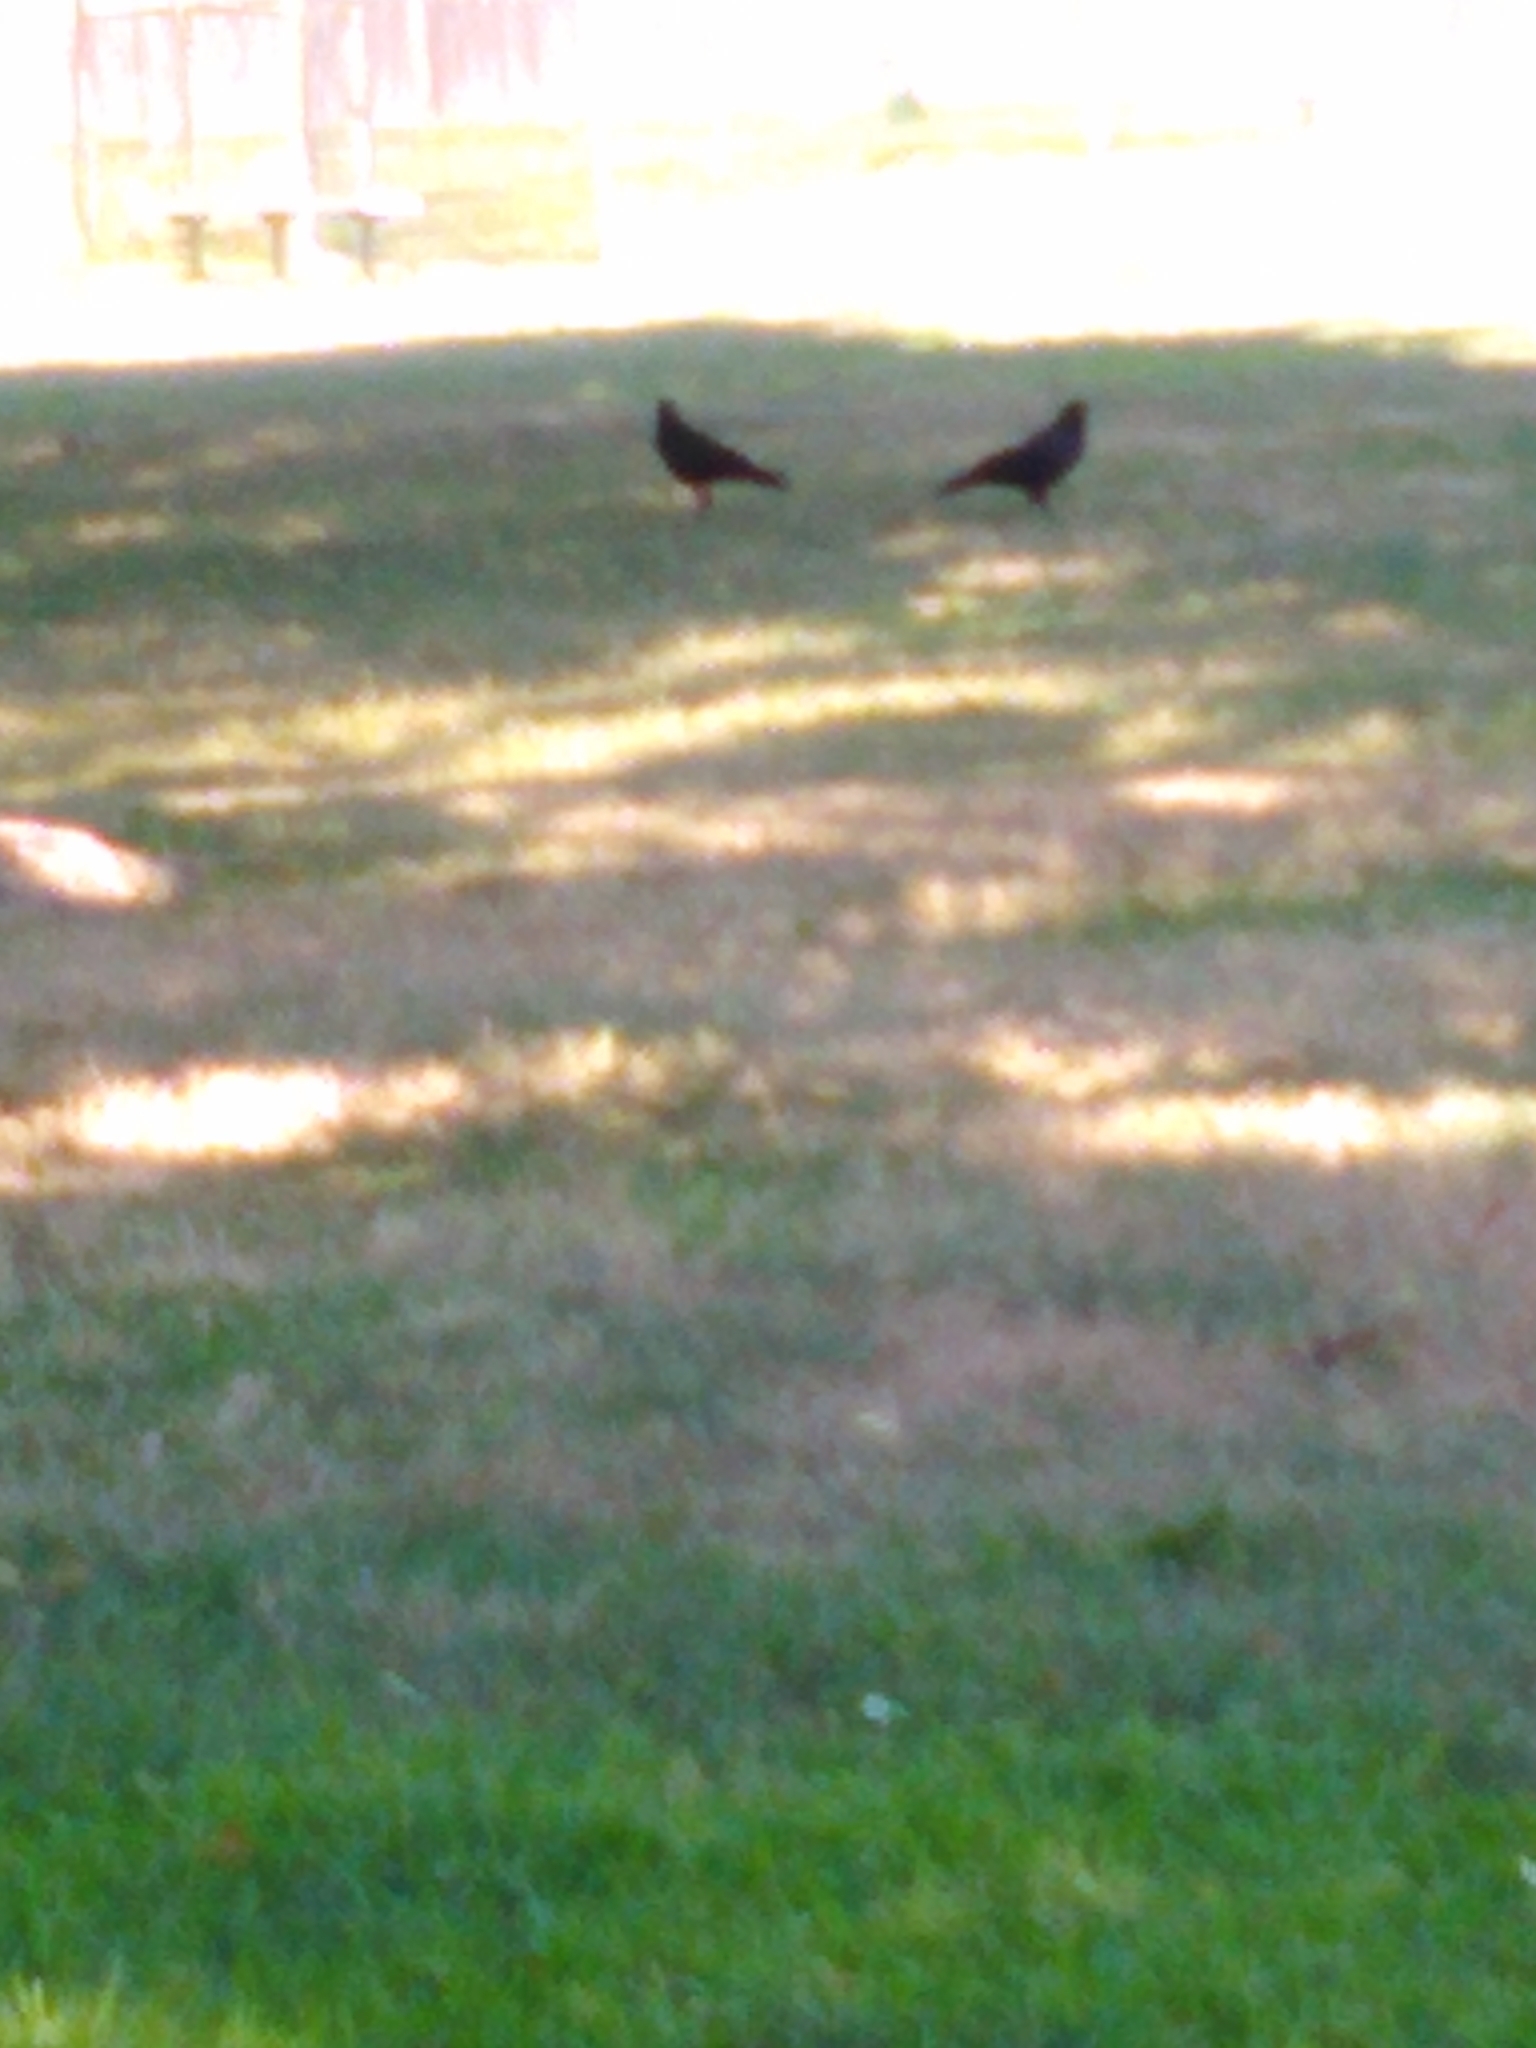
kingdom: Animalia
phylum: Chordata
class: Aves
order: Passeriformes
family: Corvidae
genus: Corvus
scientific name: Corvus brachyrhynchos
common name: American crow
